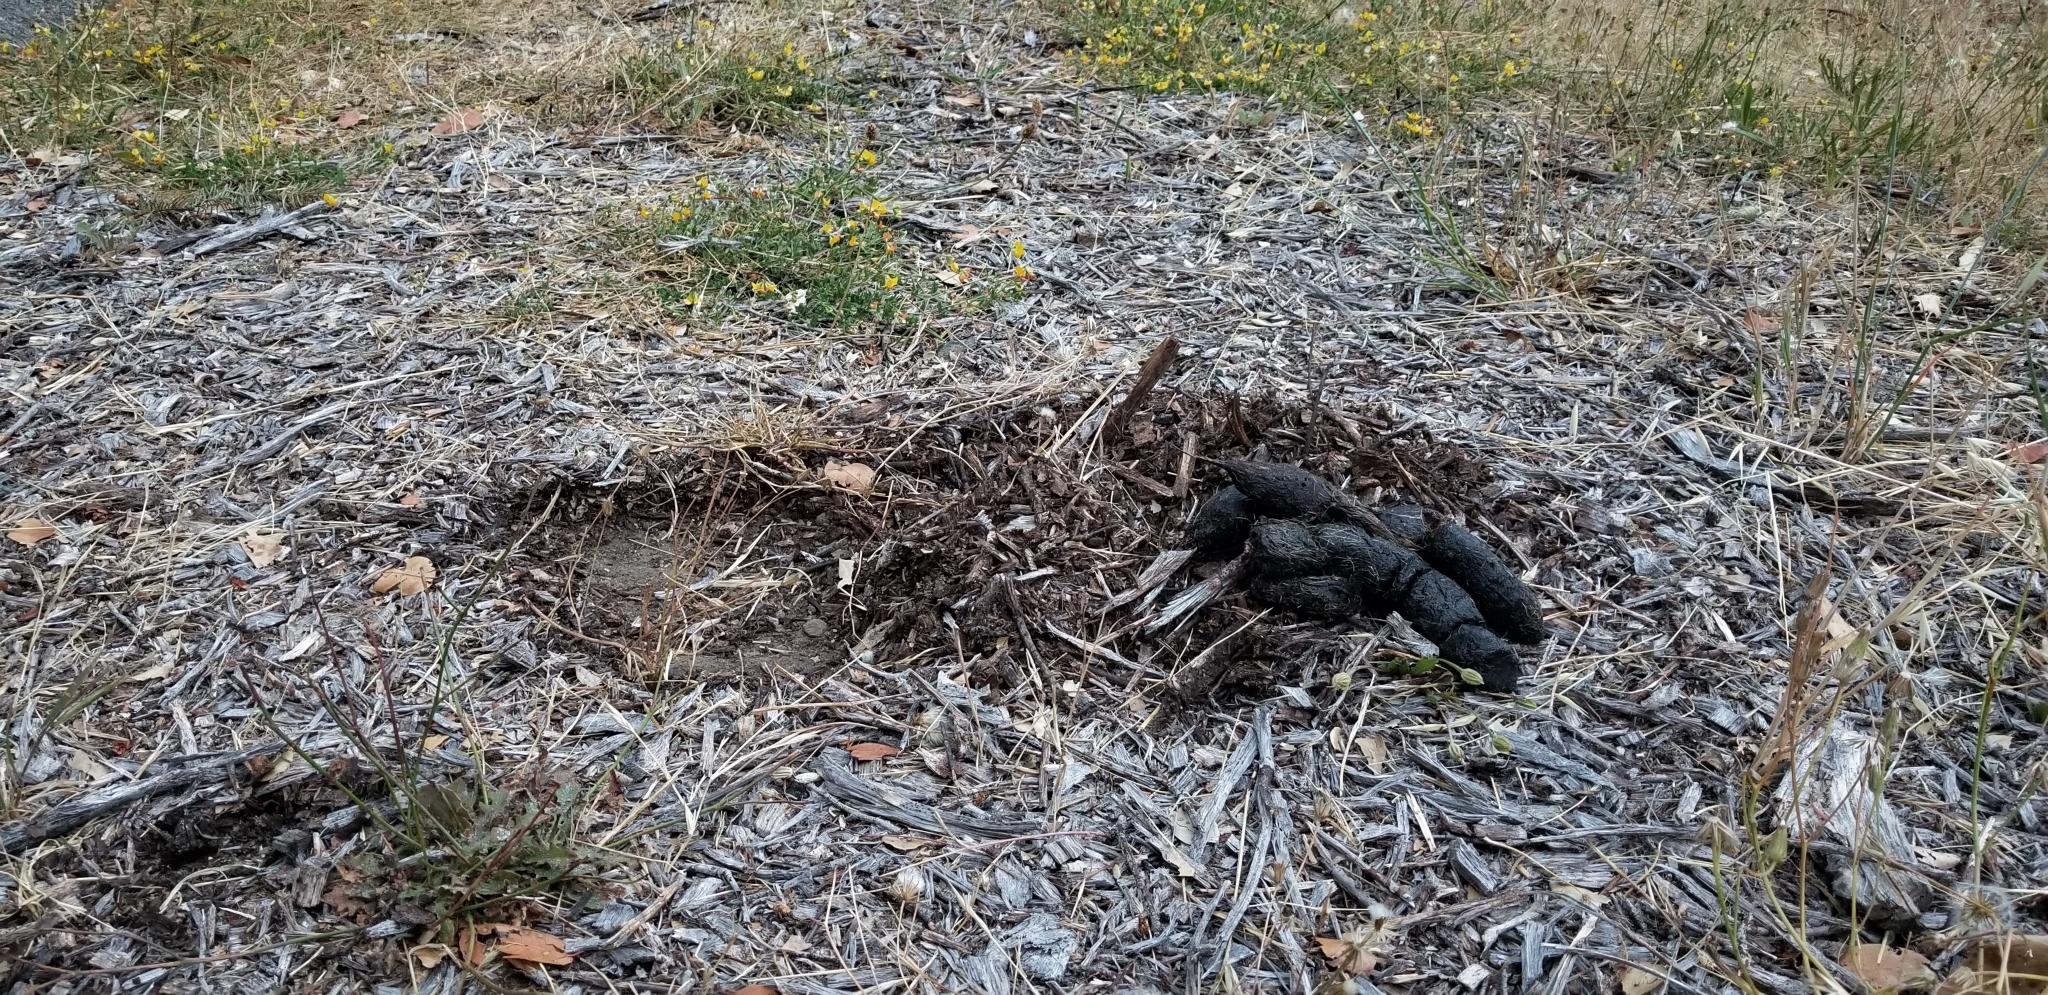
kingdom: Animalia
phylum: Chordata
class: Mammalia
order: Carnivora
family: Felidae
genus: Puma
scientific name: Puma concolor
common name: Puma
